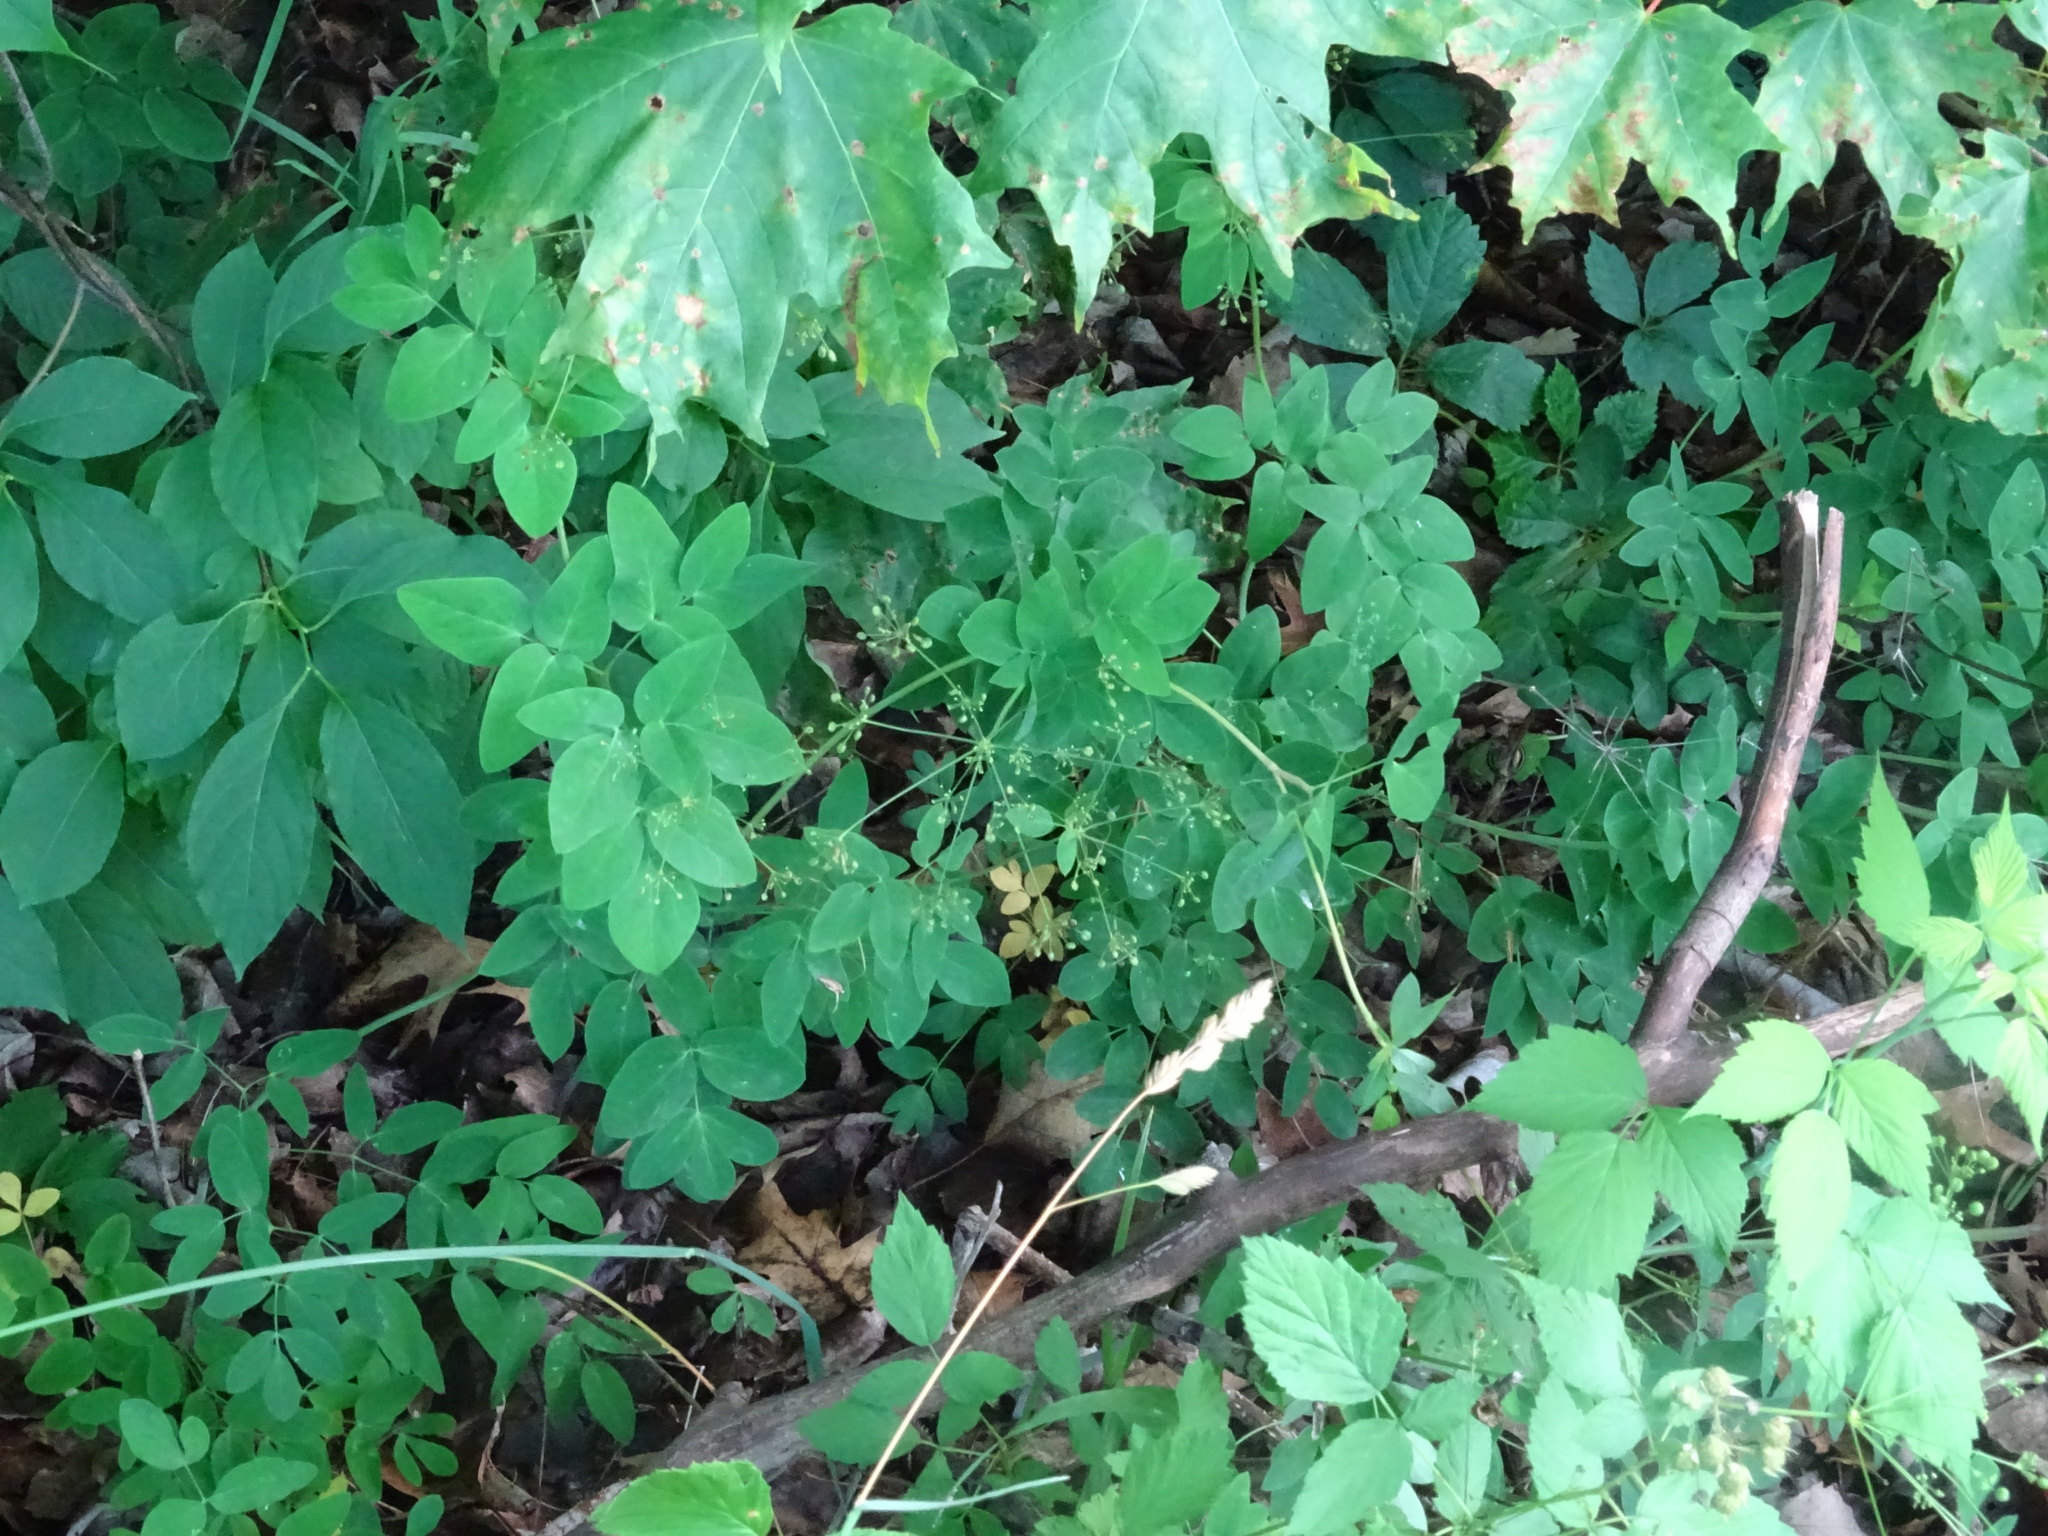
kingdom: Plantae
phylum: Tracheophyta
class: Magnoliopsida
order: Apiales
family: Apiaceae
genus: Taenidia
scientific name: Taenidia integerrima
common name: Golden alexander
